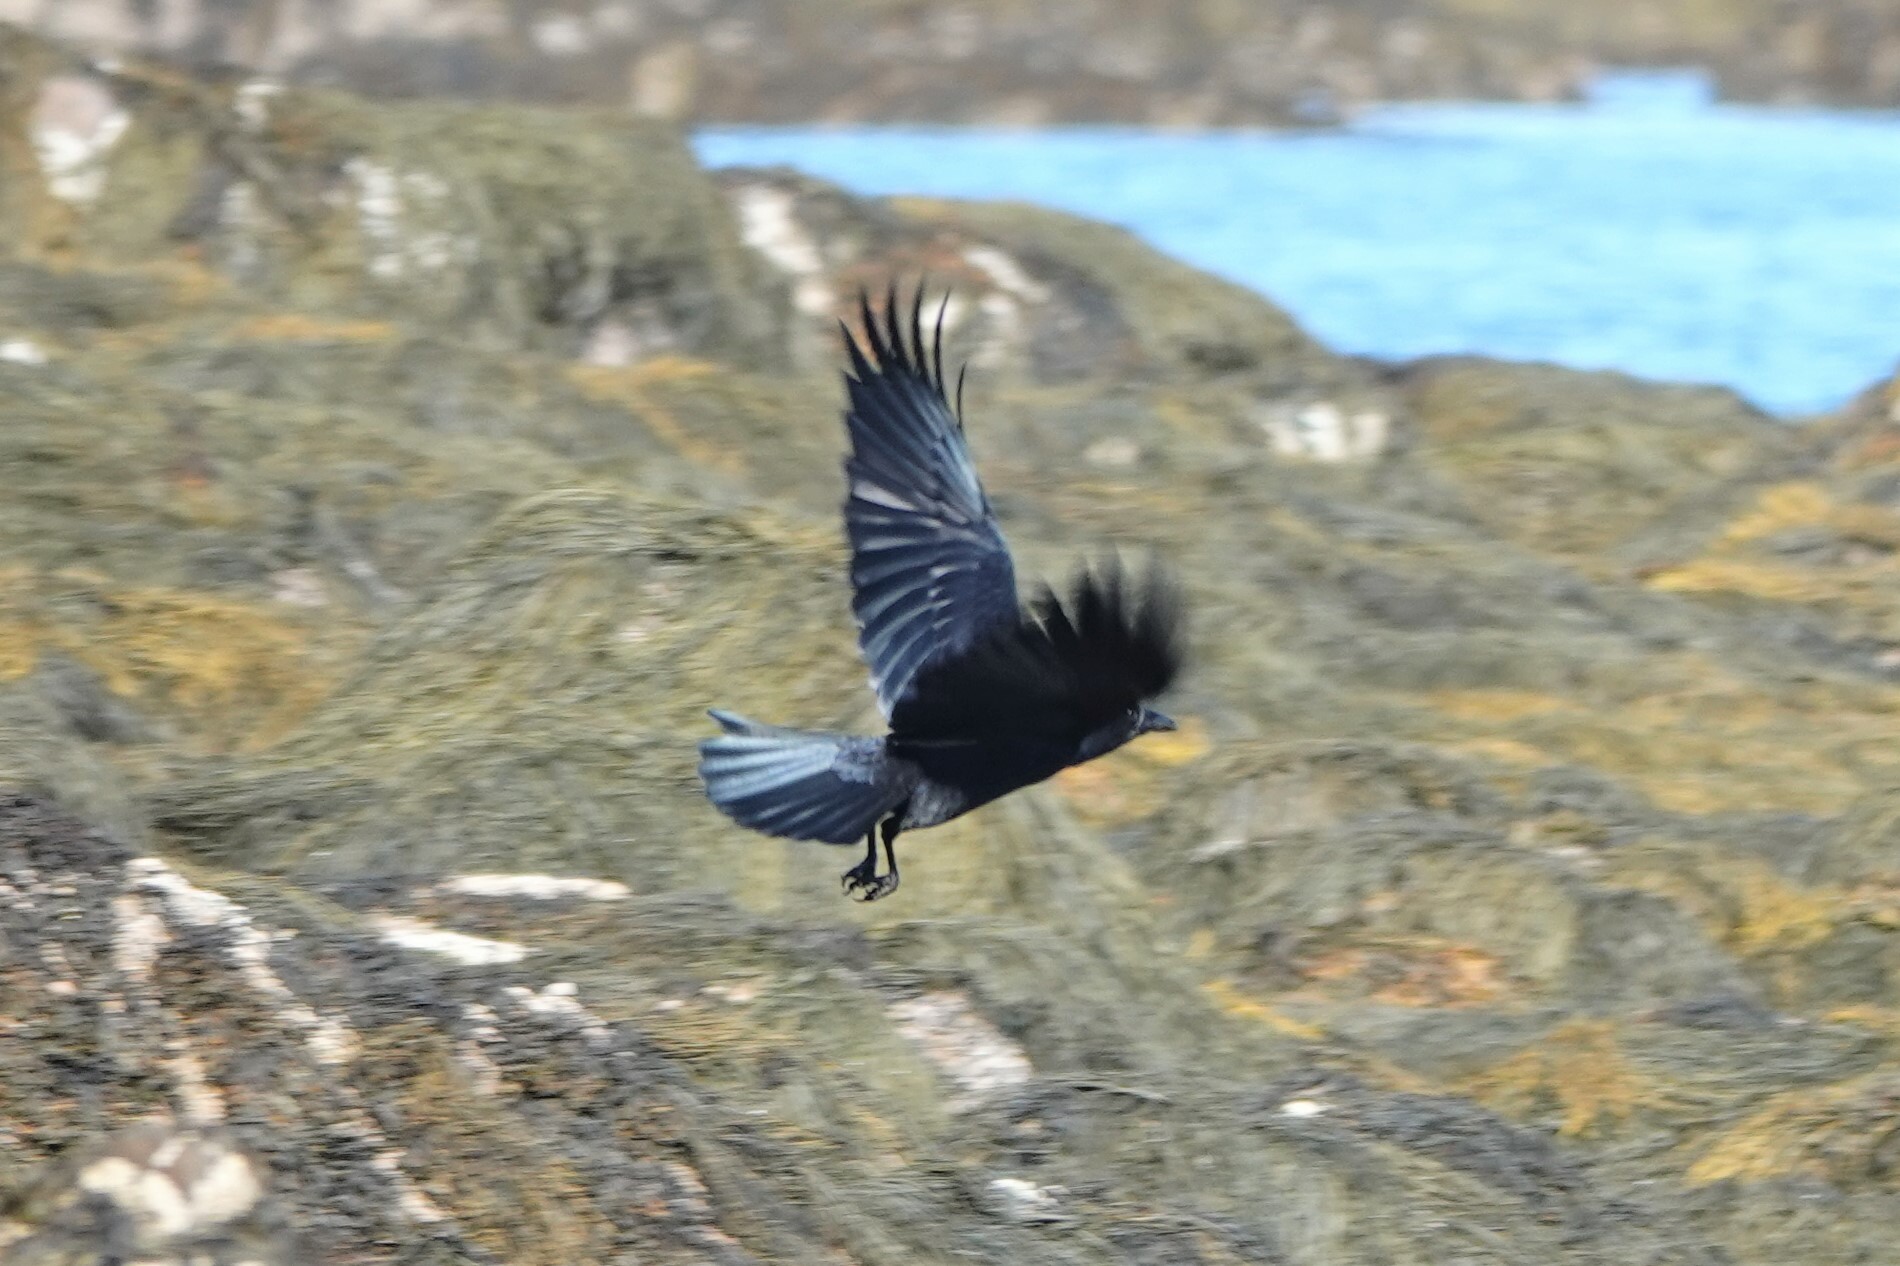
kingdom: Animalia
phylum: Chordata
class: Aves
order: Passeriformes
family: Corvidae
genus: Corvus
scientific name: Corvus brachyrhynchos
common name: American crow
